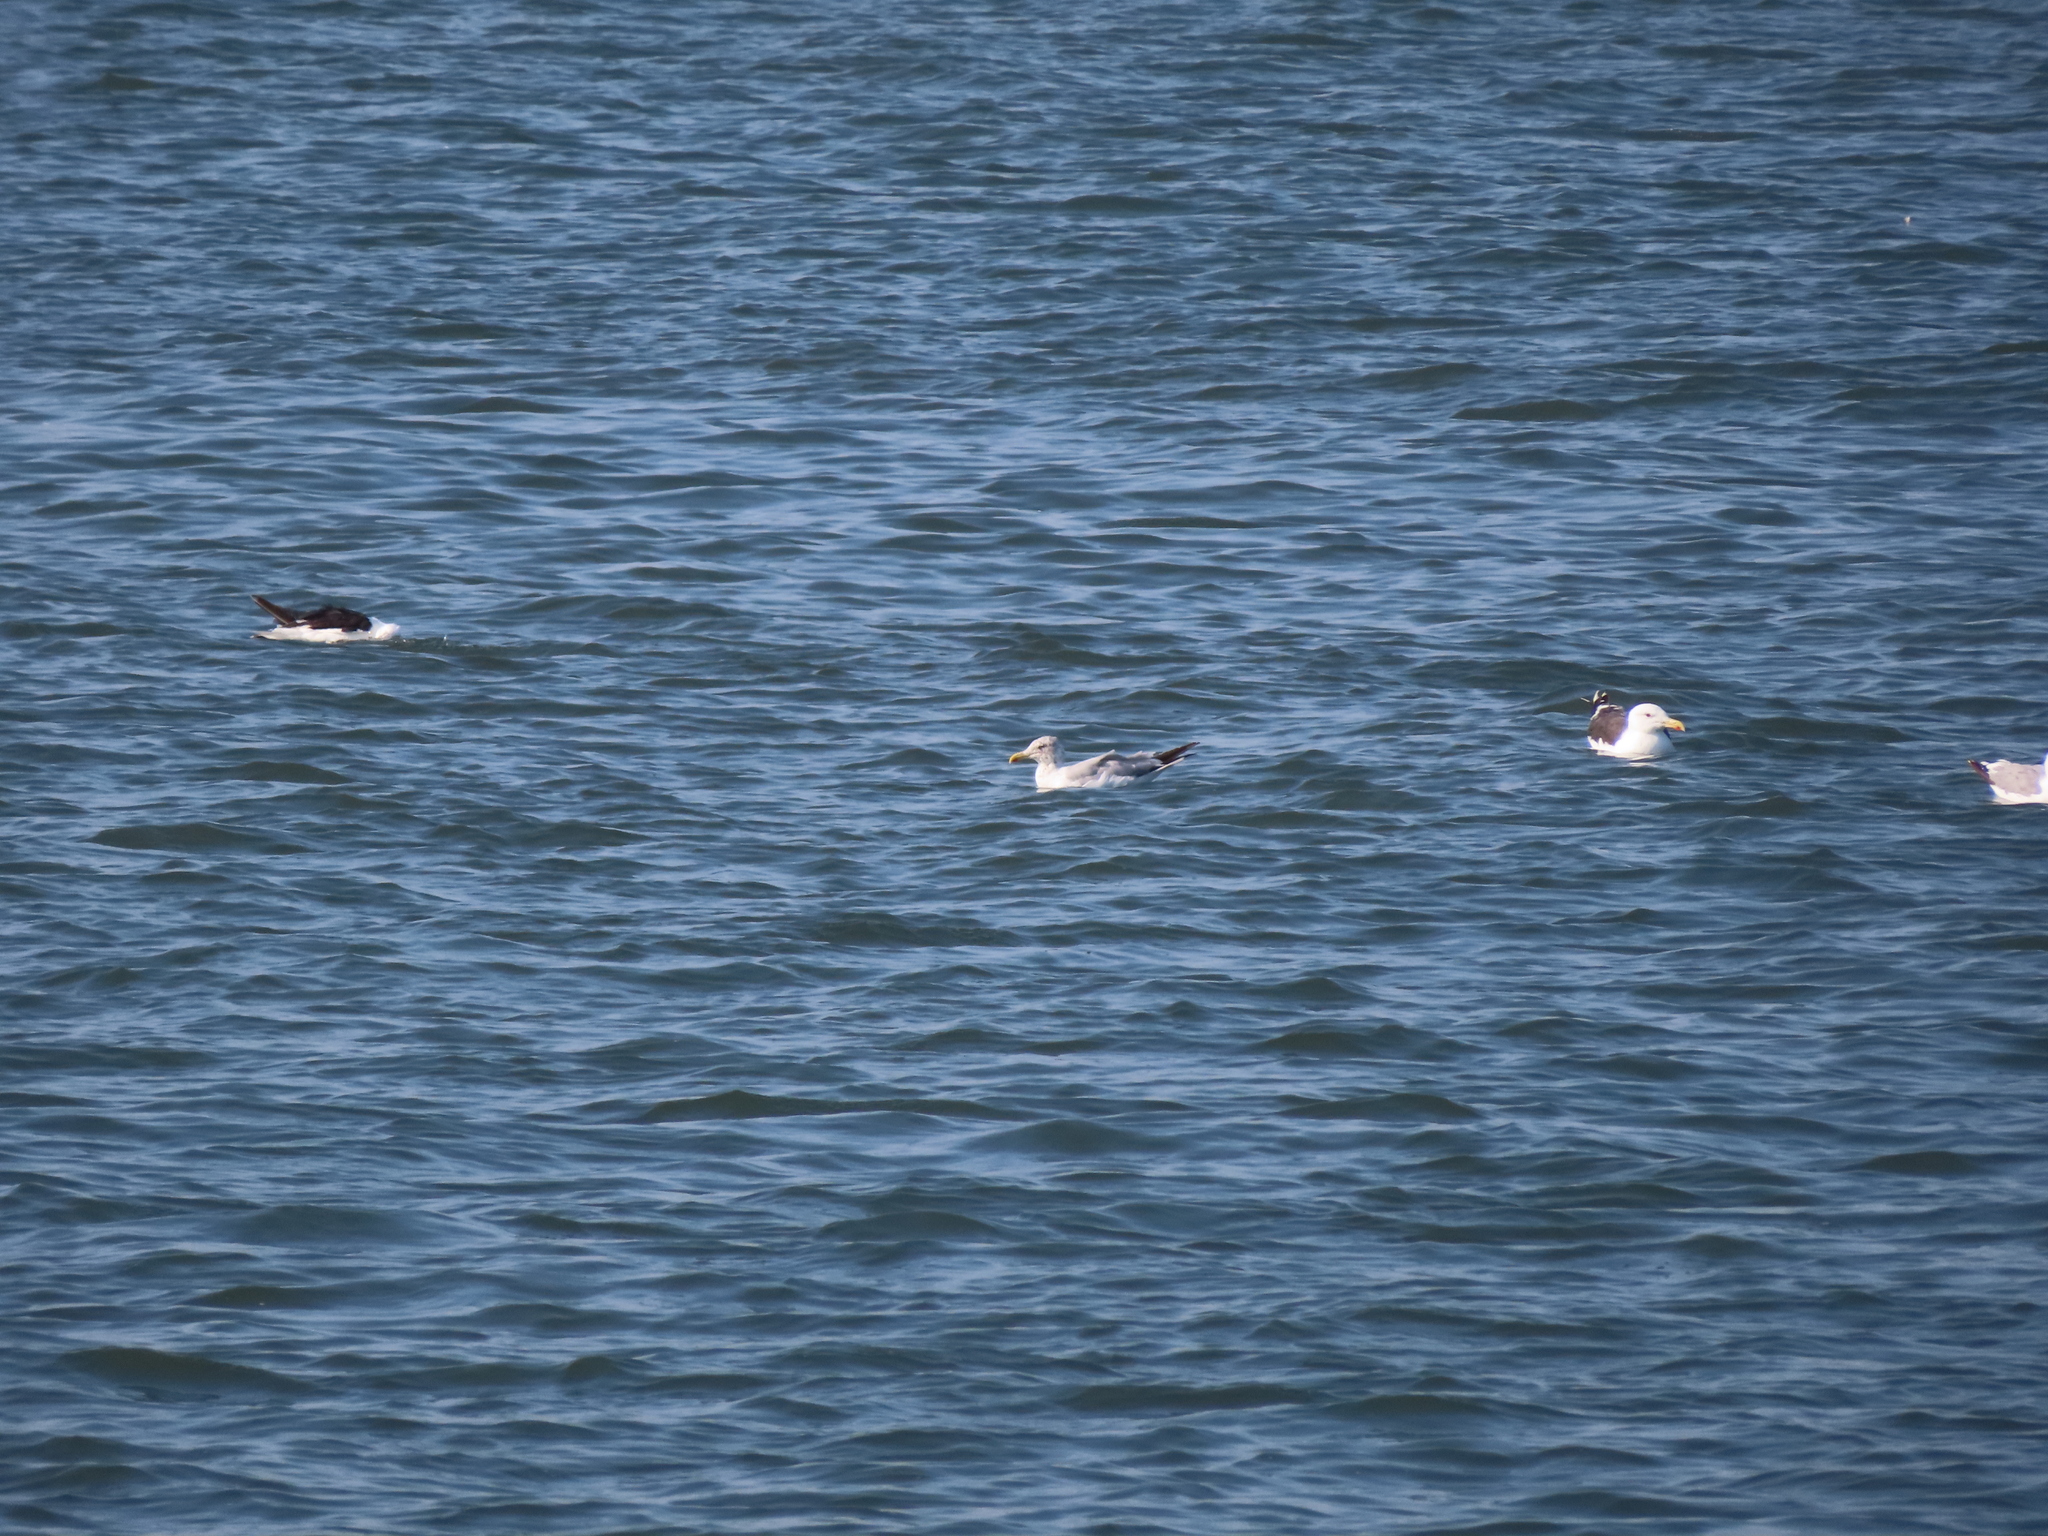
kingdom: Animalia
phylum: Chordata
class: Aves
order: Charadriiformes
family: Laridae
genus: Larus
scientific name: Larus marinus
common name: Great black-backed gull
